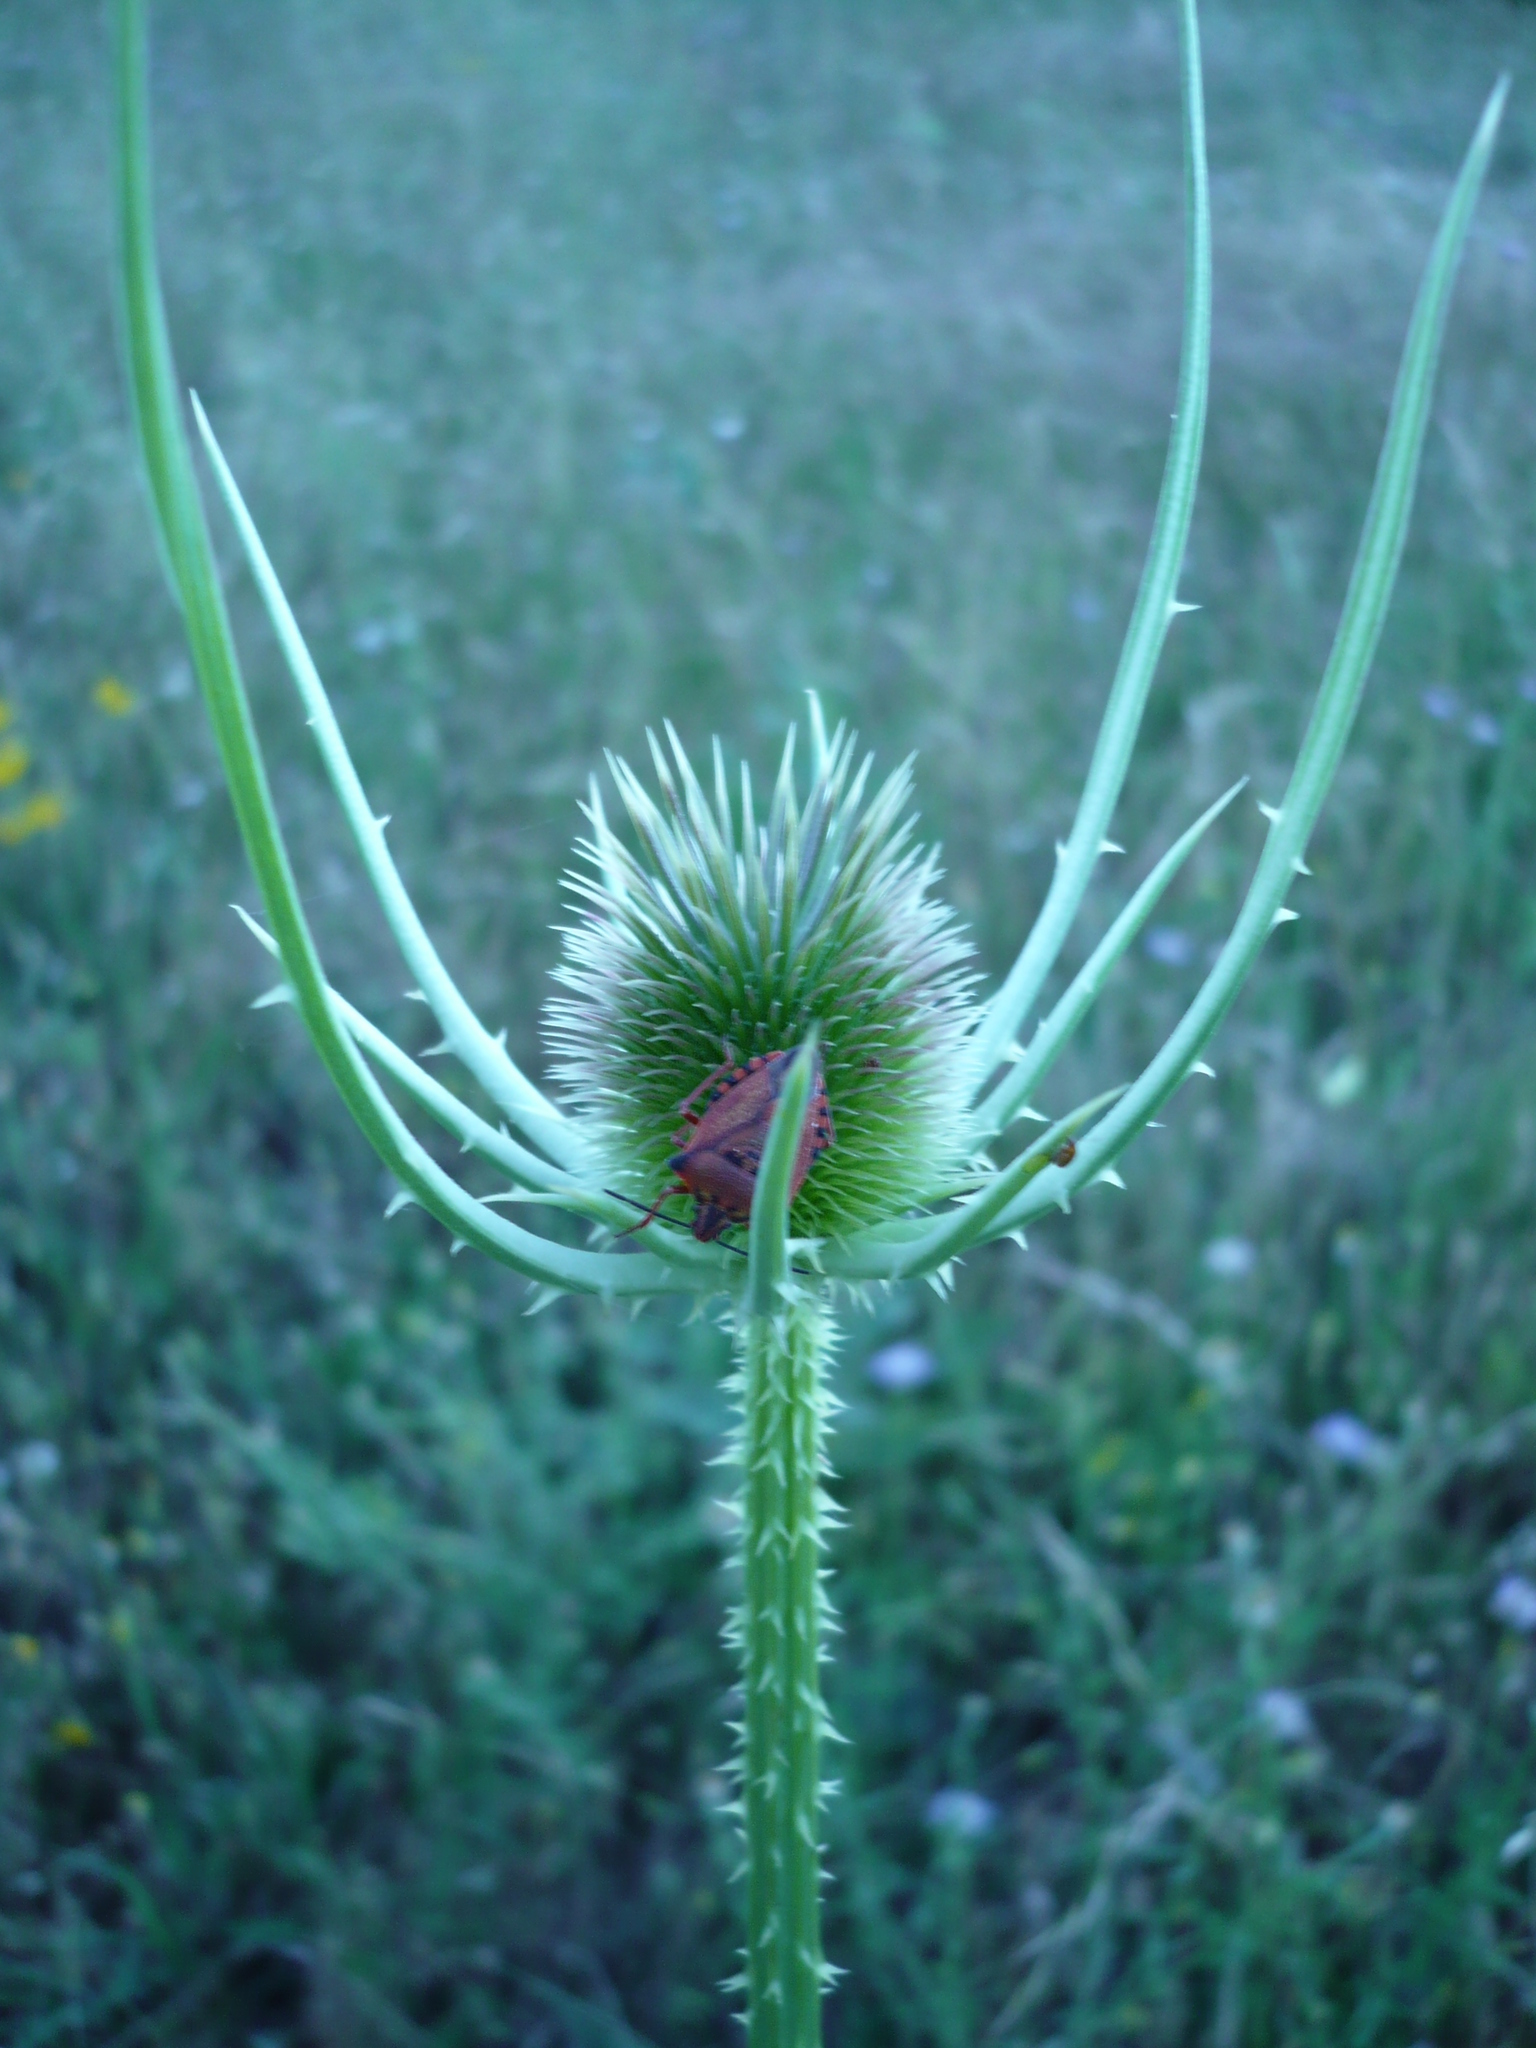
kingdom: Plantae
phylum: Tracheophyta
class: Magnoliopsida
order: Dipsacales
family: Caprifoliaceae
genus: Dipsacus
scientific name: Dipsacus fullonum
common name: Teasel
